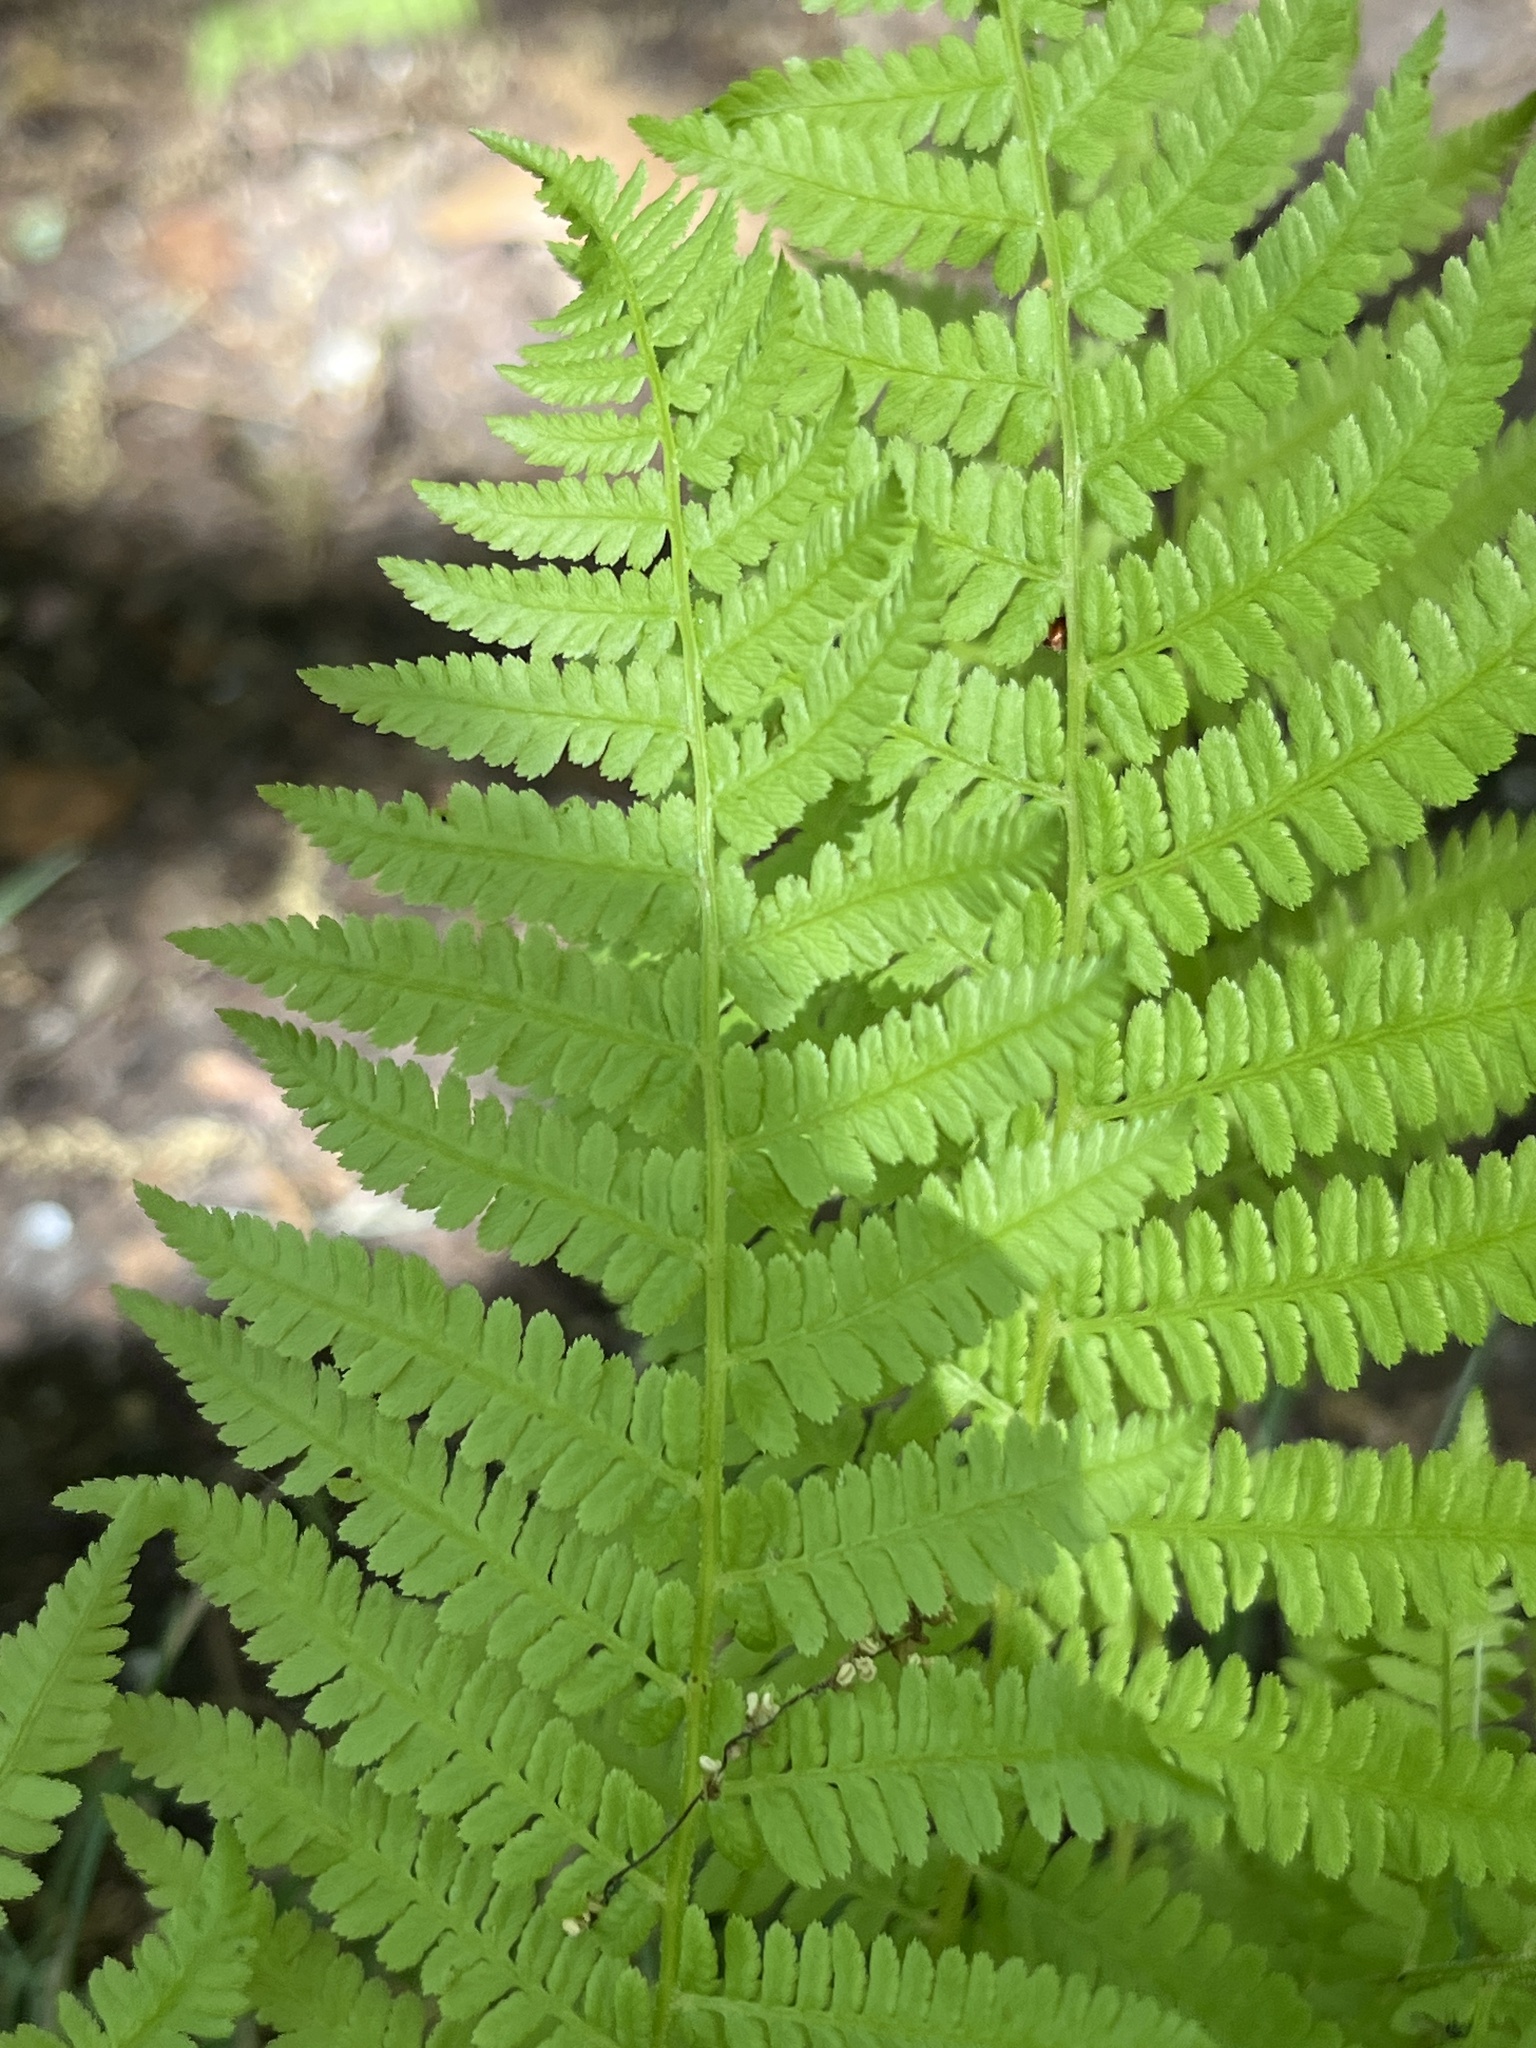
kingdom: Plantae
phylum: Tracheophyta
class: Polypodiopsida
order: Polypodiales
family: Athyriaceae
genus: Athyrium
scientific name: Athyrium angustum
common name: Northern lady fern
